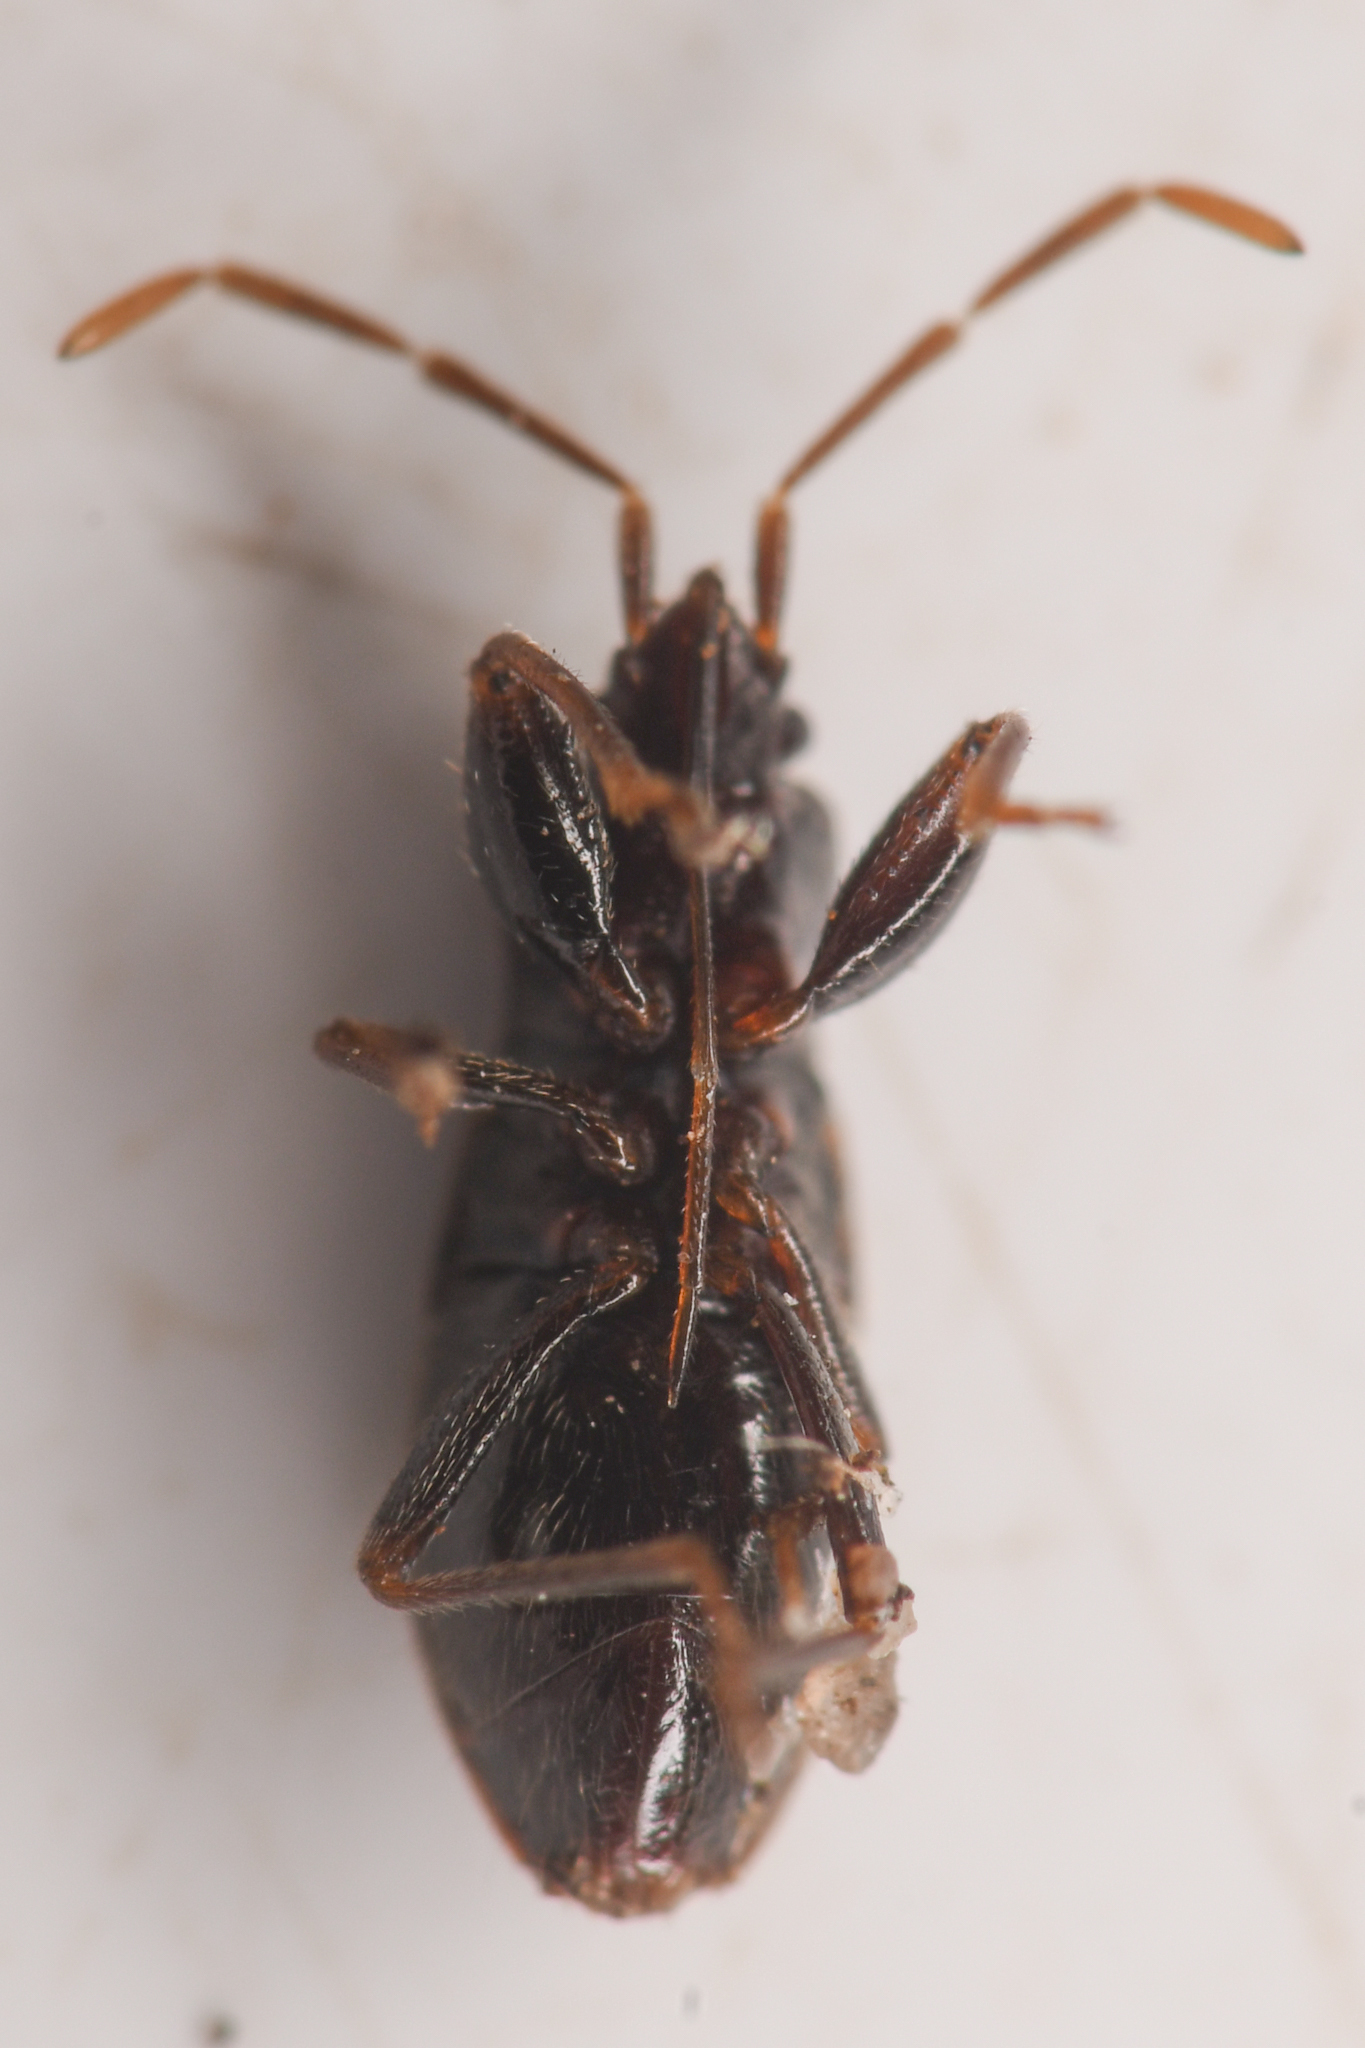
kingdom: Animalia
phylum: Arthropoda
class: Insecta
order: Hemiptera
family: Rhyparochromidae
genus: Thylochromus
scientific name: Thylochromus nitidulus
